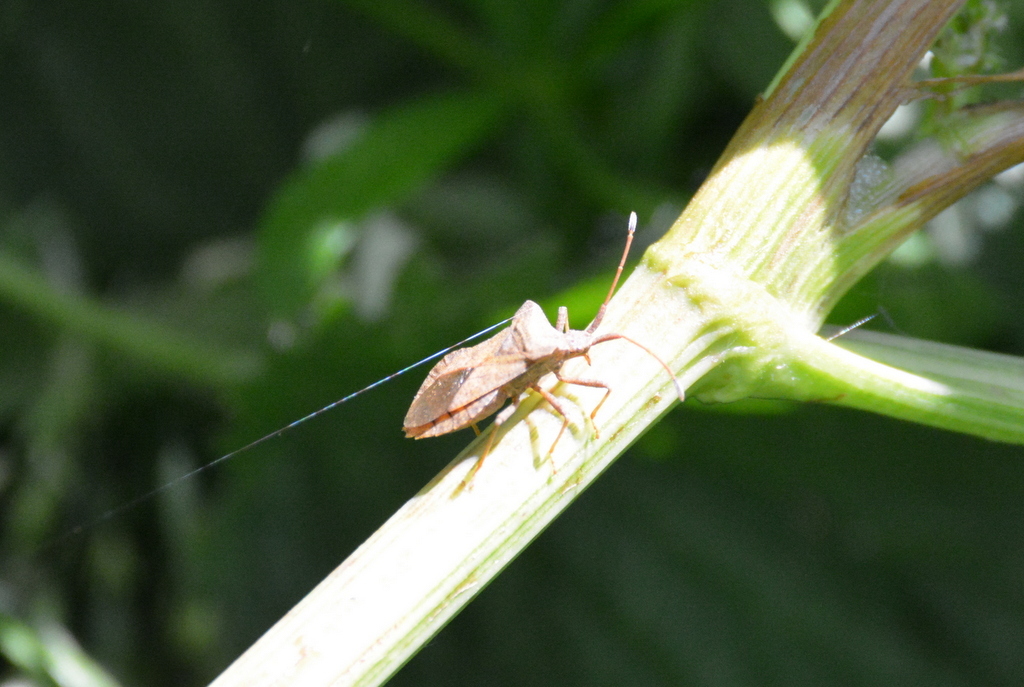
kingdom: Animalia
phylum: Arthropoda
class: Insecta
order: Hemiptera
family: Coreidae
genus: Coreus
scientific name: Coreus marginatus
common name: Dock bug
